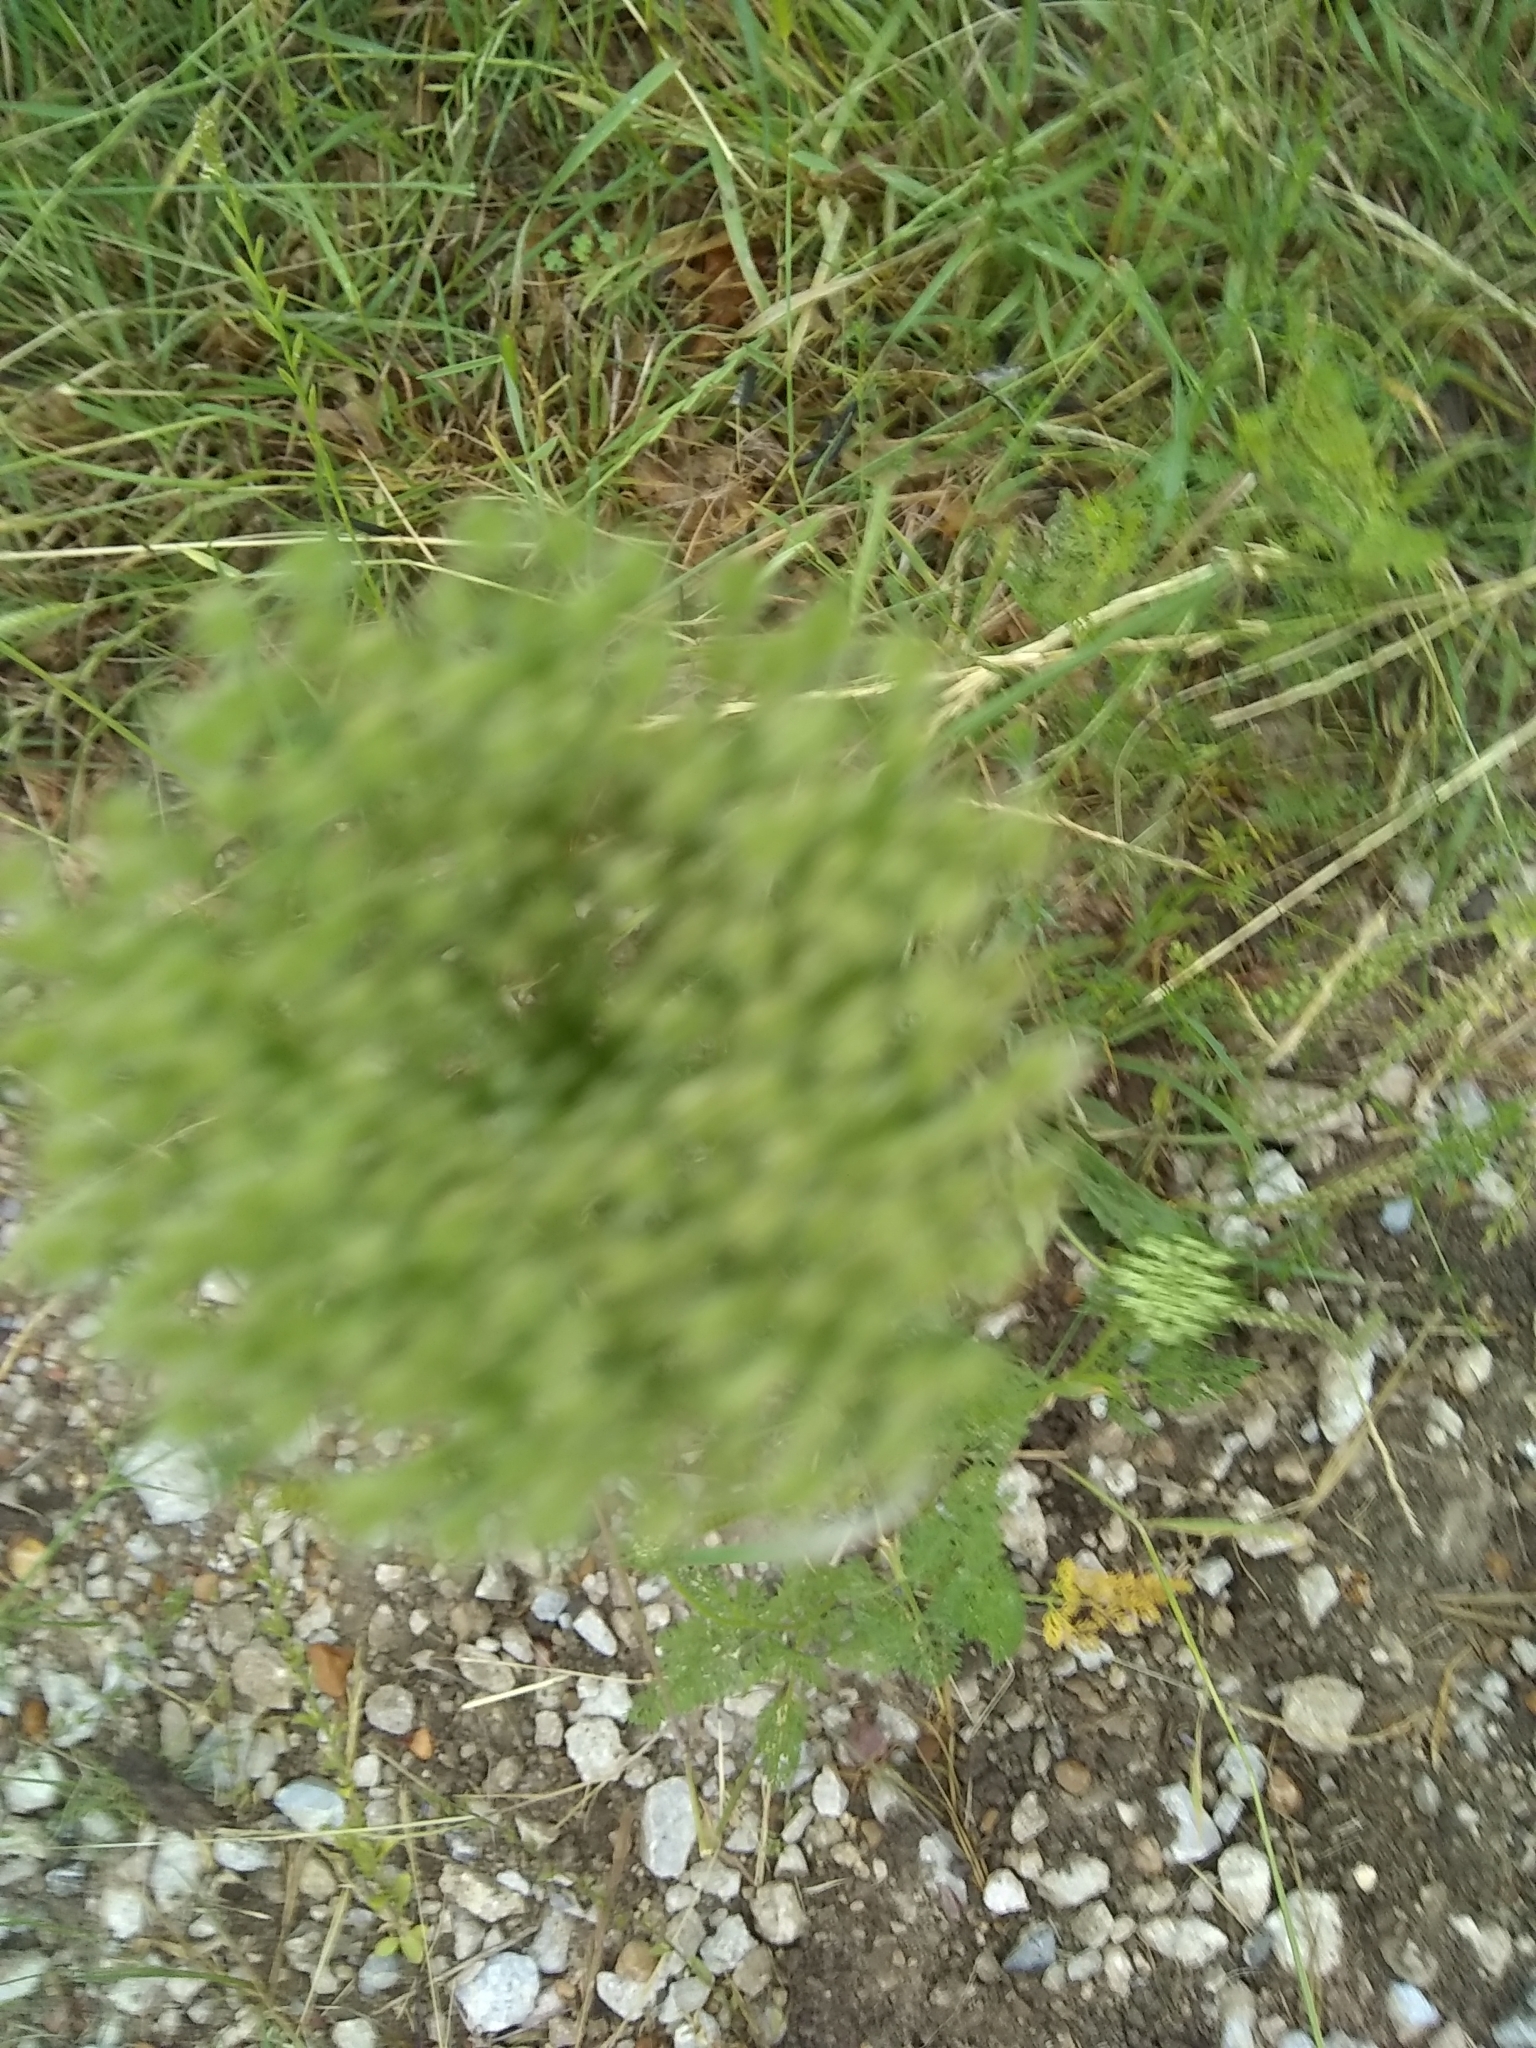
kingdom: Plantae
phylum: Tracheophyta
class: Magnoliopsida
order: Apiales
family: Apiaceae
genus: Daucus
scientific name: Daucus pusillus
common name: Southwest wild carrot
